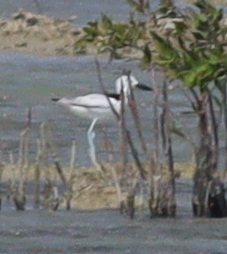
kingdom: Animalia
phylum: Chordata
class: Aves
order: Charadriiformes
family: Dromadidae
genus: Dromas
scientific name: Dromas ardeola
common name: Crab-plover
